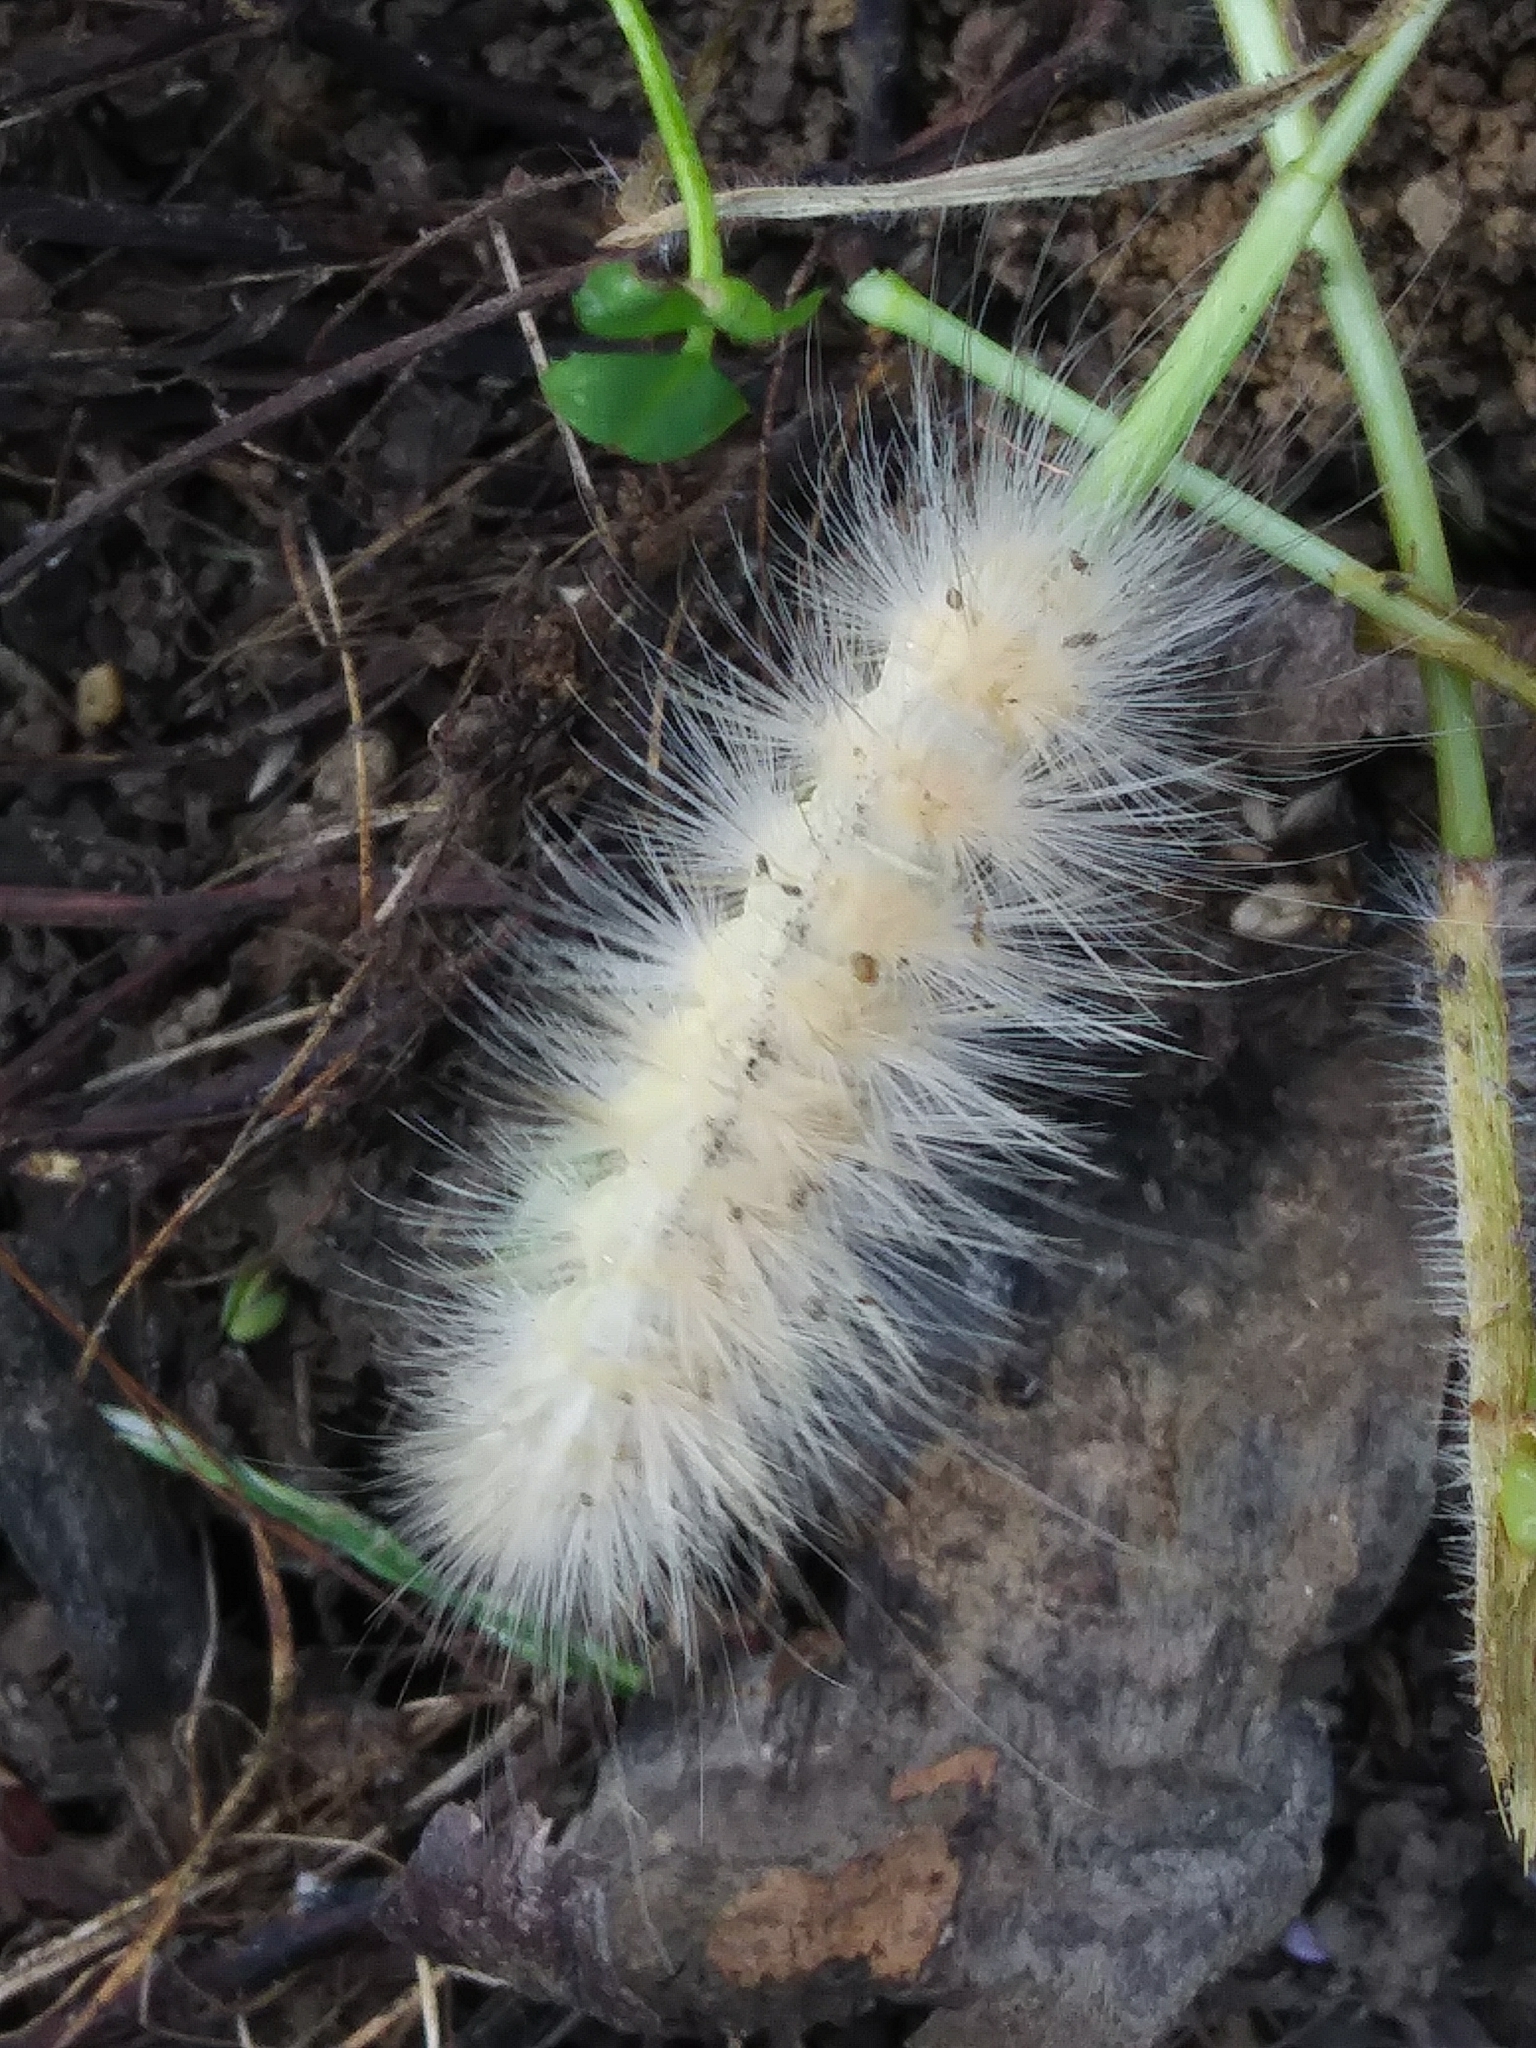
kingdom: Animalia
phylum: Arthropoda
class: Insecta
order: Lepidoptera
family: Erebidae
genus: Spilosoma
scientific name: Spilosoma virginica
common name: Virginia tiger moth
